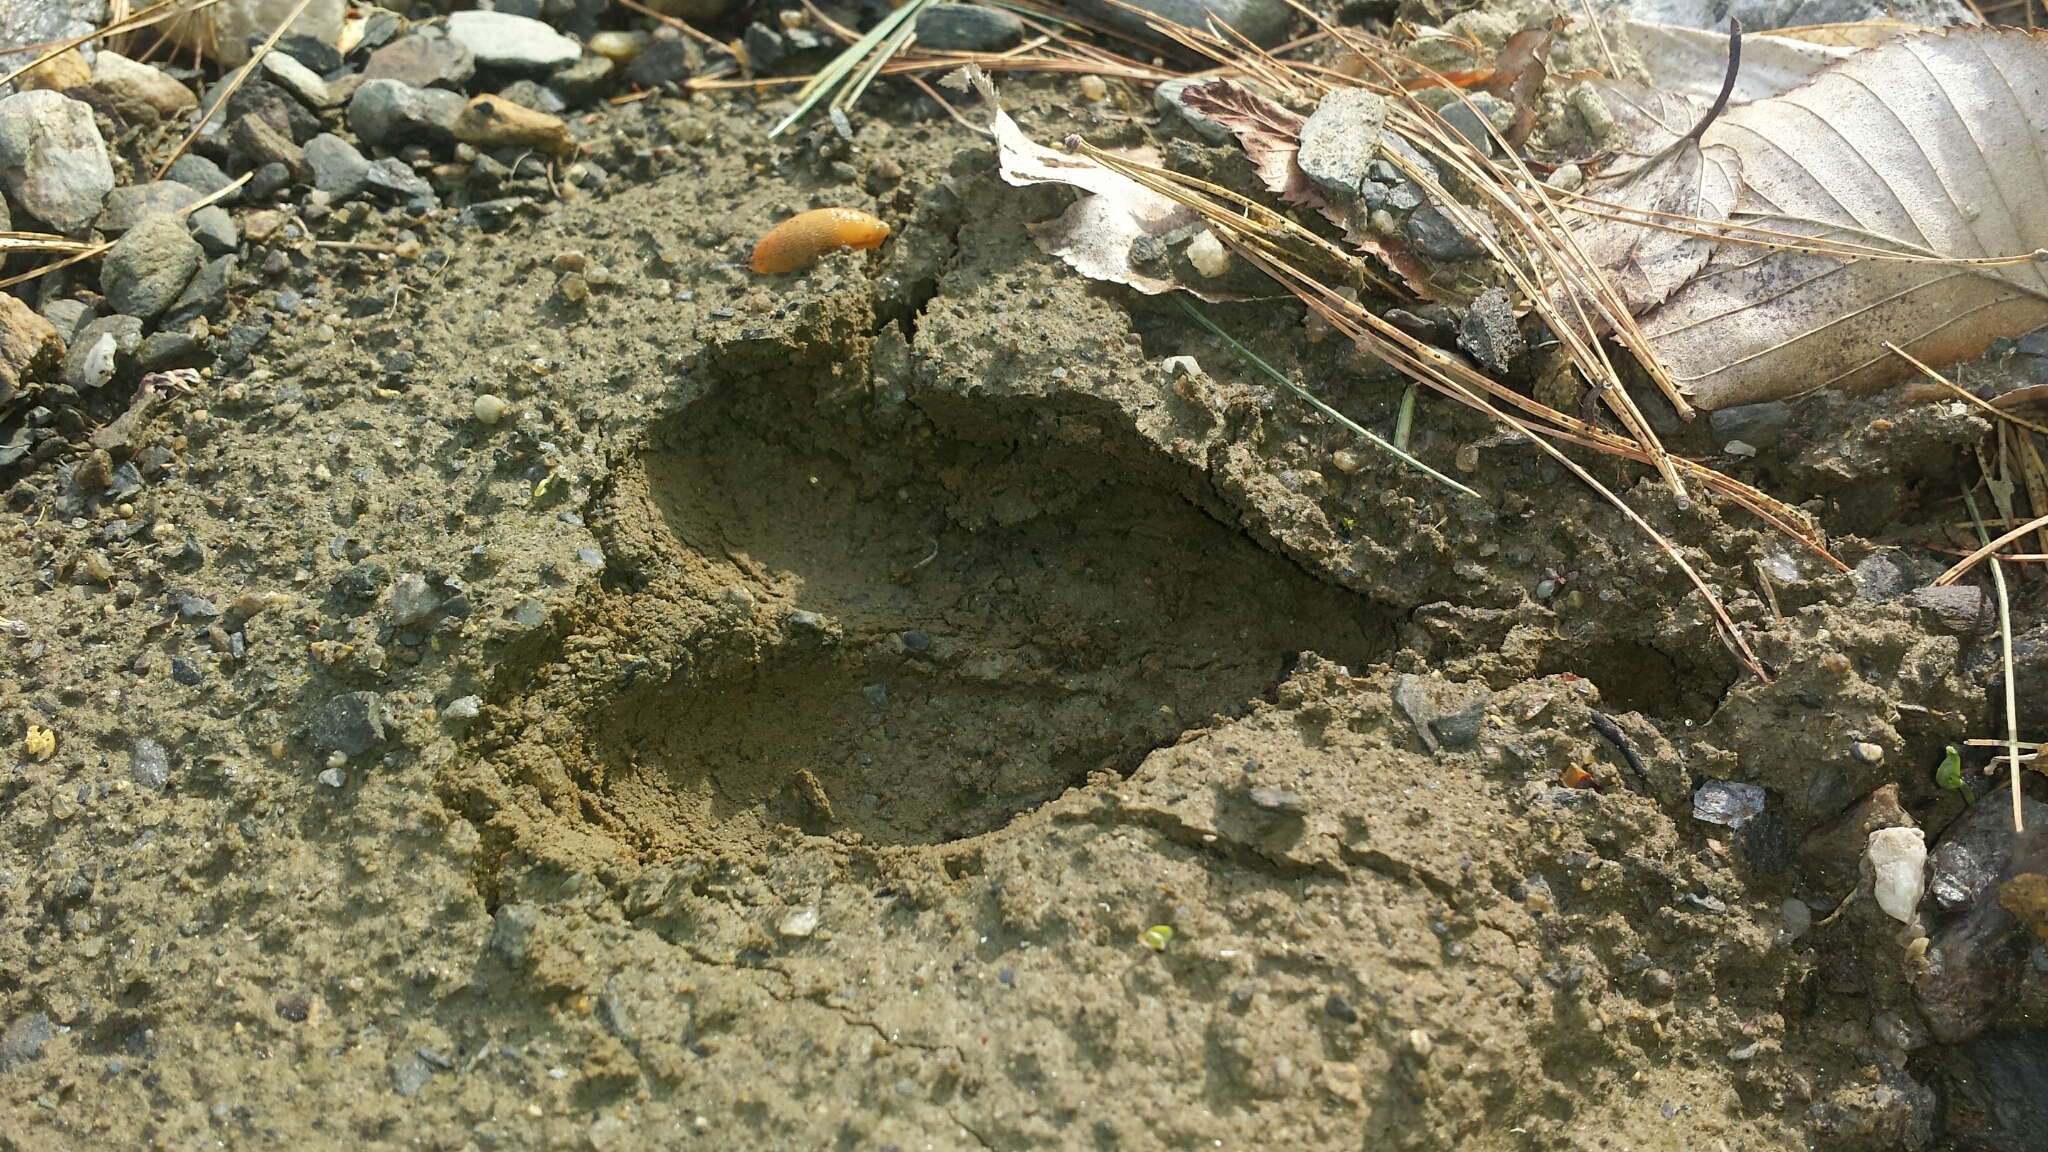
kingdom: Animalia
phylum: Chordata
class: Mammalia
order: Artiodactyla
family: Cervidae
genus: Odocoileus
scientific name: Odocoileus virginianus
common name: White-tailed deer
